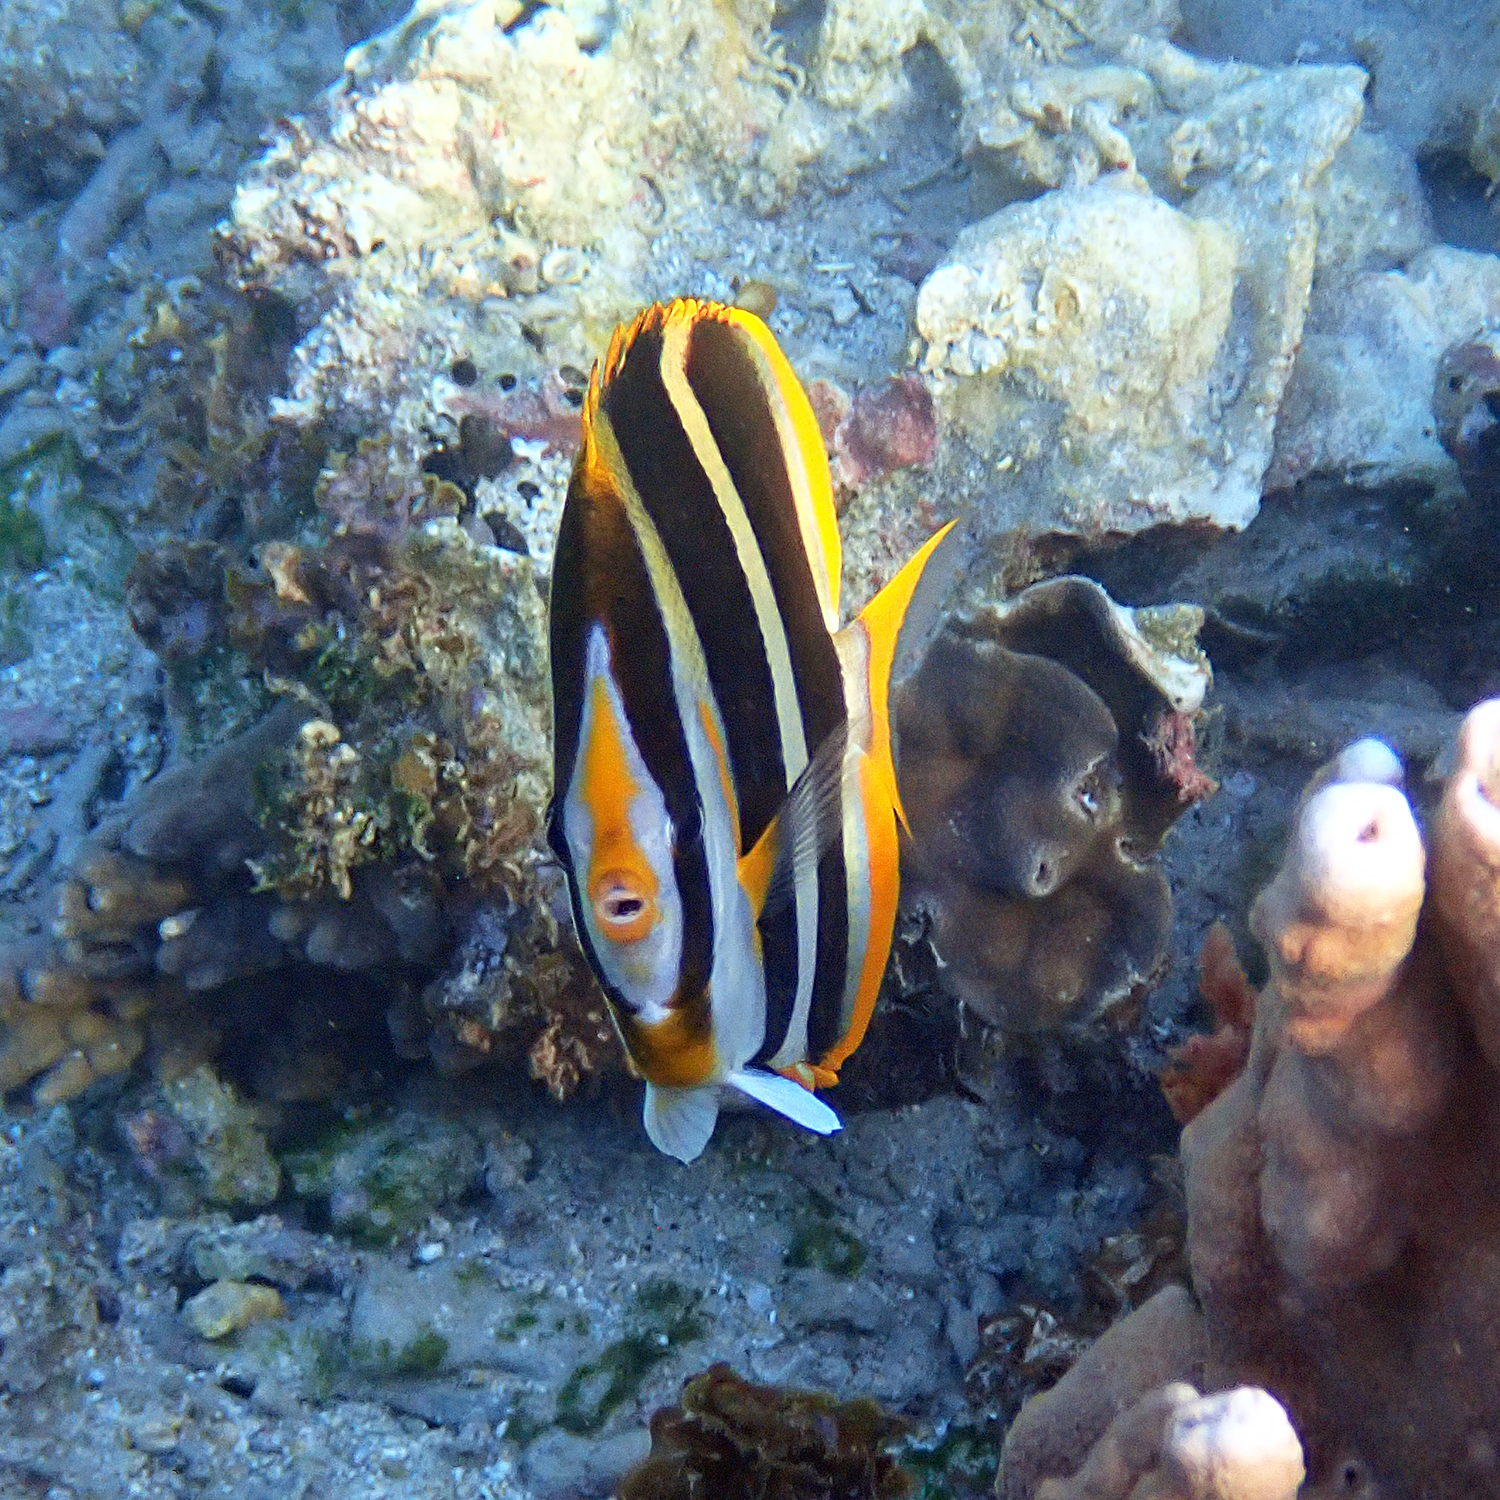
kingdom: Animalia
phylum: Chordata
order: Perciformes
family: Chaetodontidae
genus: Chaetodon
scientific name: Chaetodon tricinctus
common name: Three-striped butterflyfish
